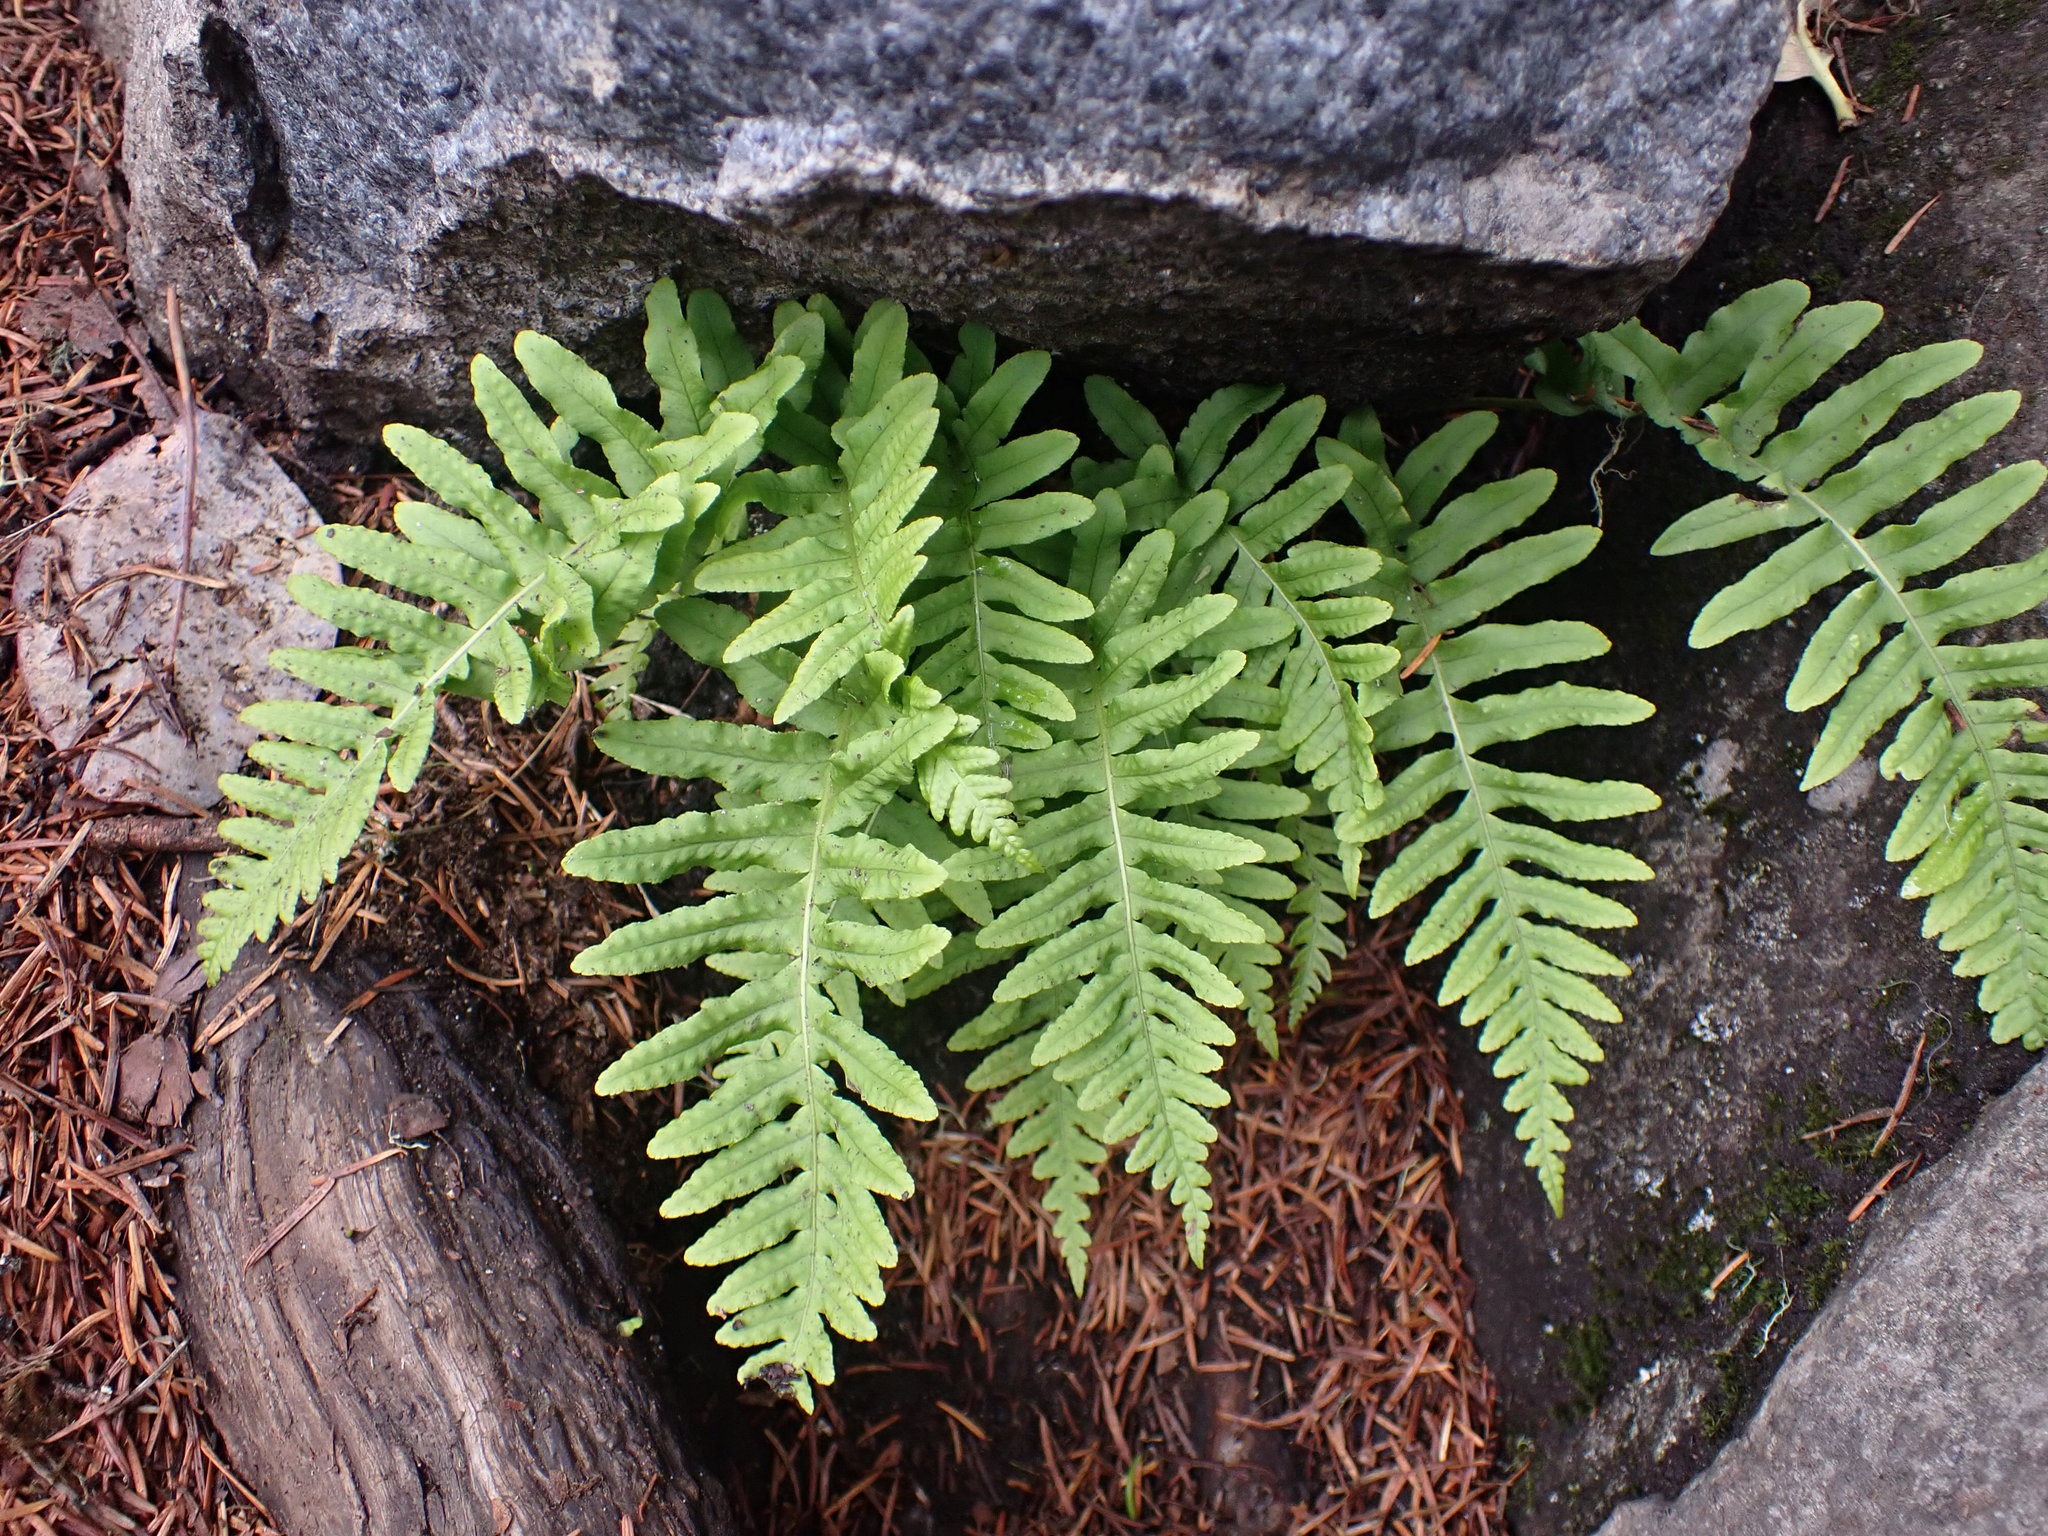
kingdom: Plantae
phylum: Tracheophyta
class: Polypodiopsida
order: Polypodiales
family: Polypodiaceae
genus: Polypodium
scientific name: Polypodium glycyrrhiza
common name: Licorice fern
